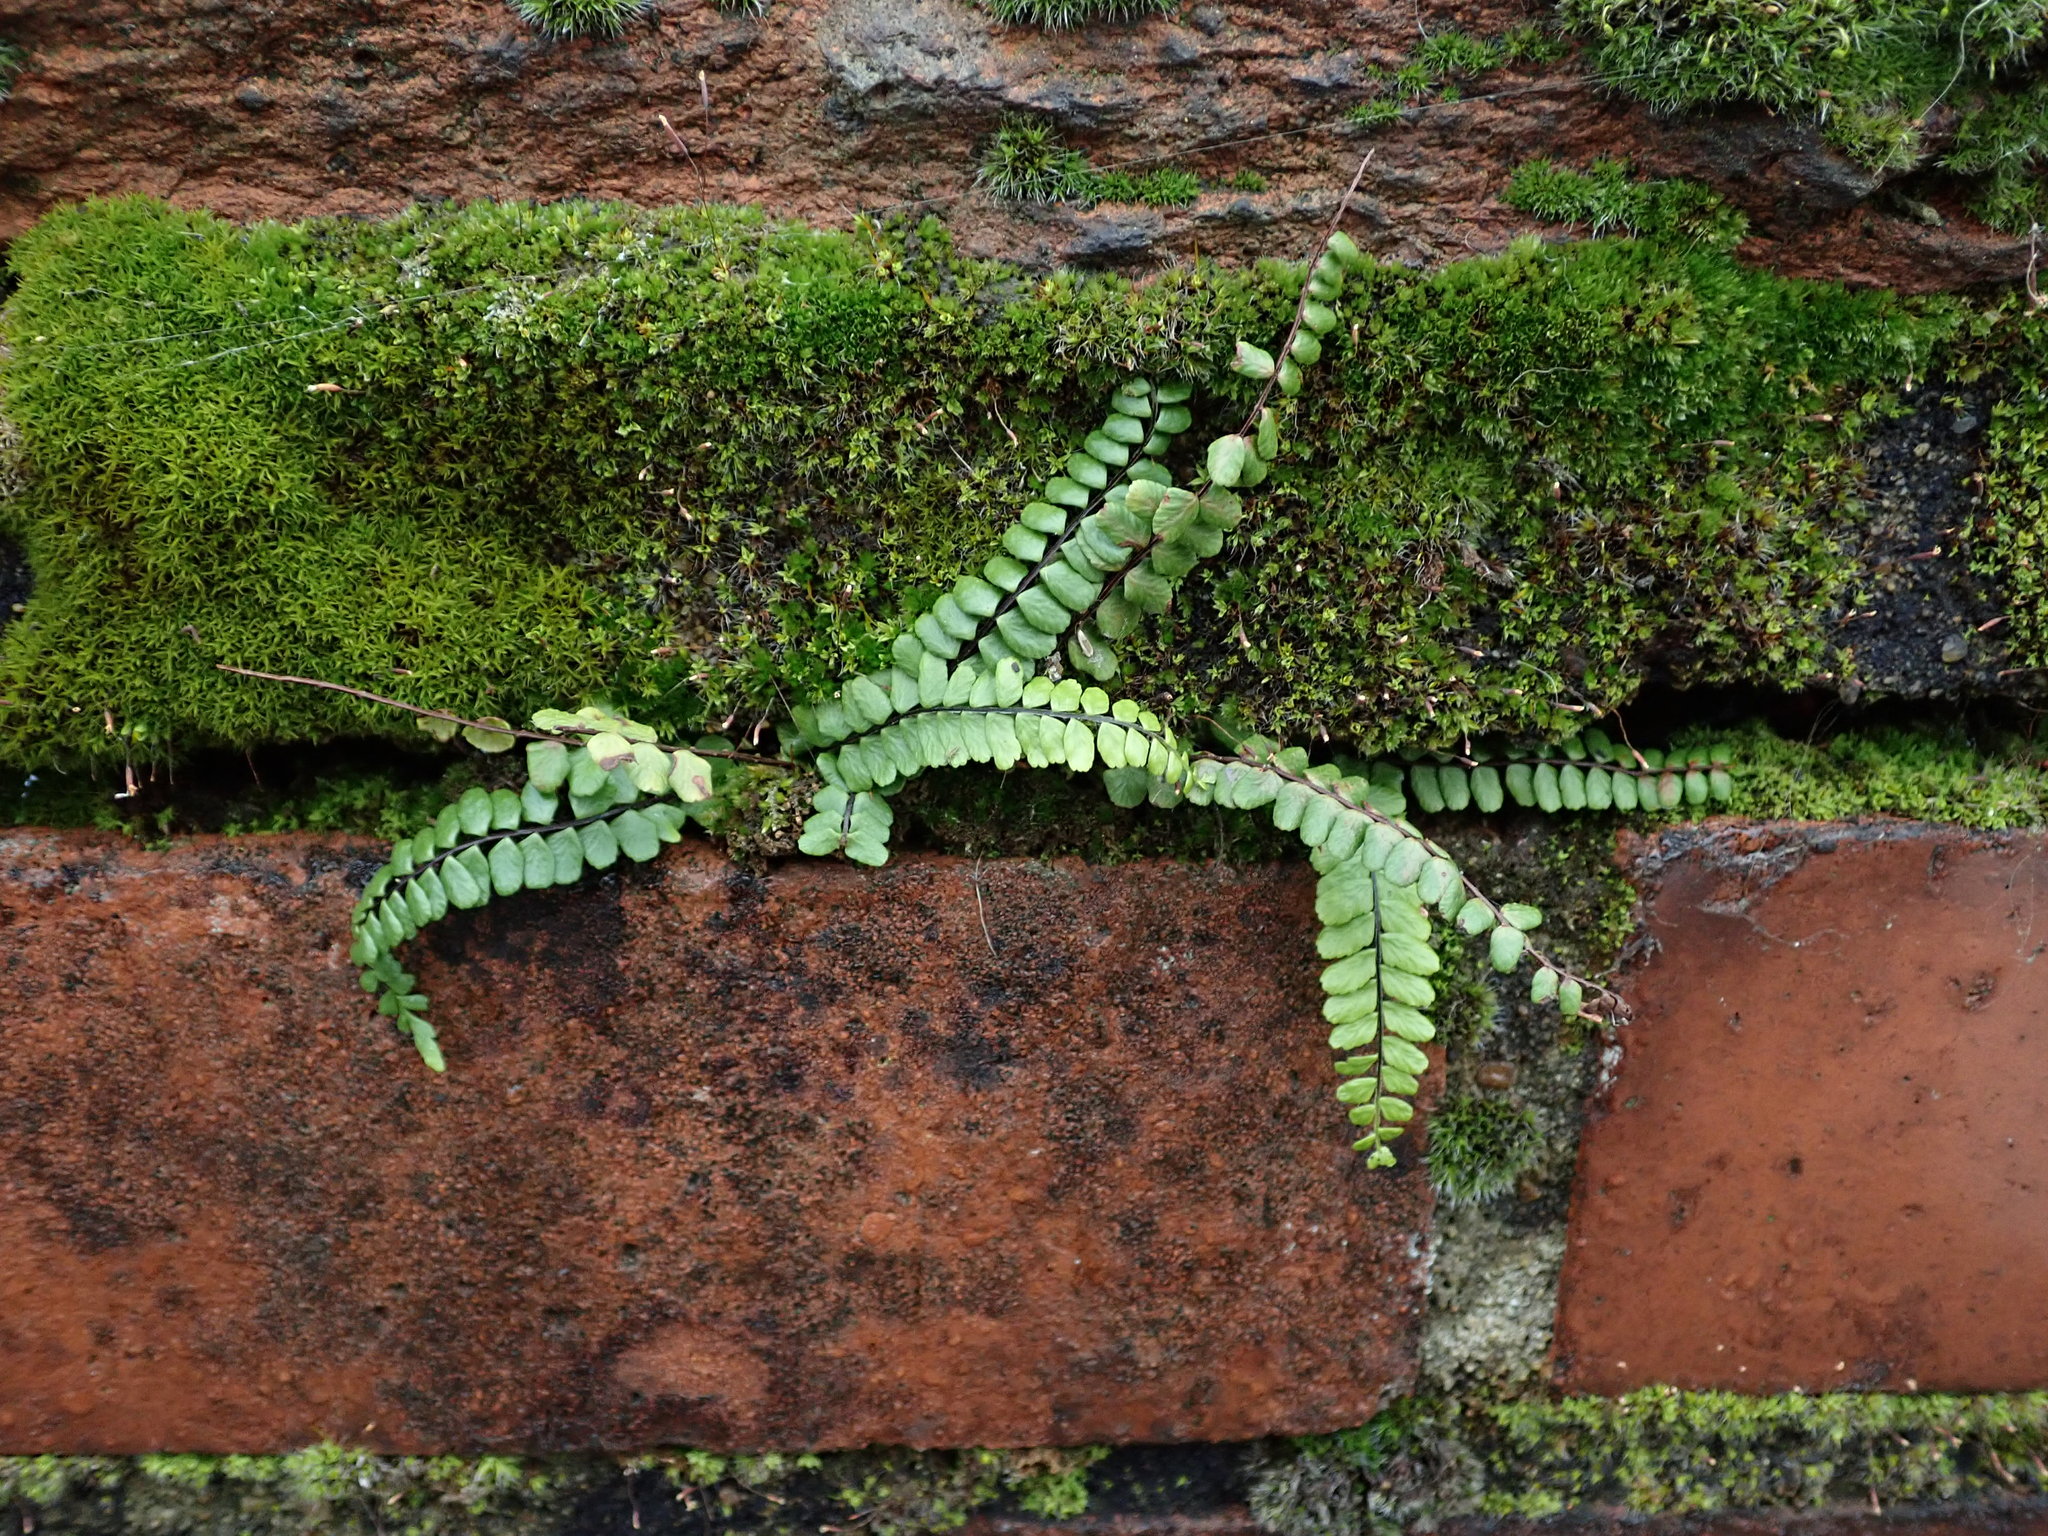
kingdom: Plantae
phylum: Tracheophyta
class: Polypodiopsida
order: Polypodiales
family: Aspleniaceae
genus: Asplenium
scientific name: Asplenium trichomanes
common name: Maidenhair spleenwort
